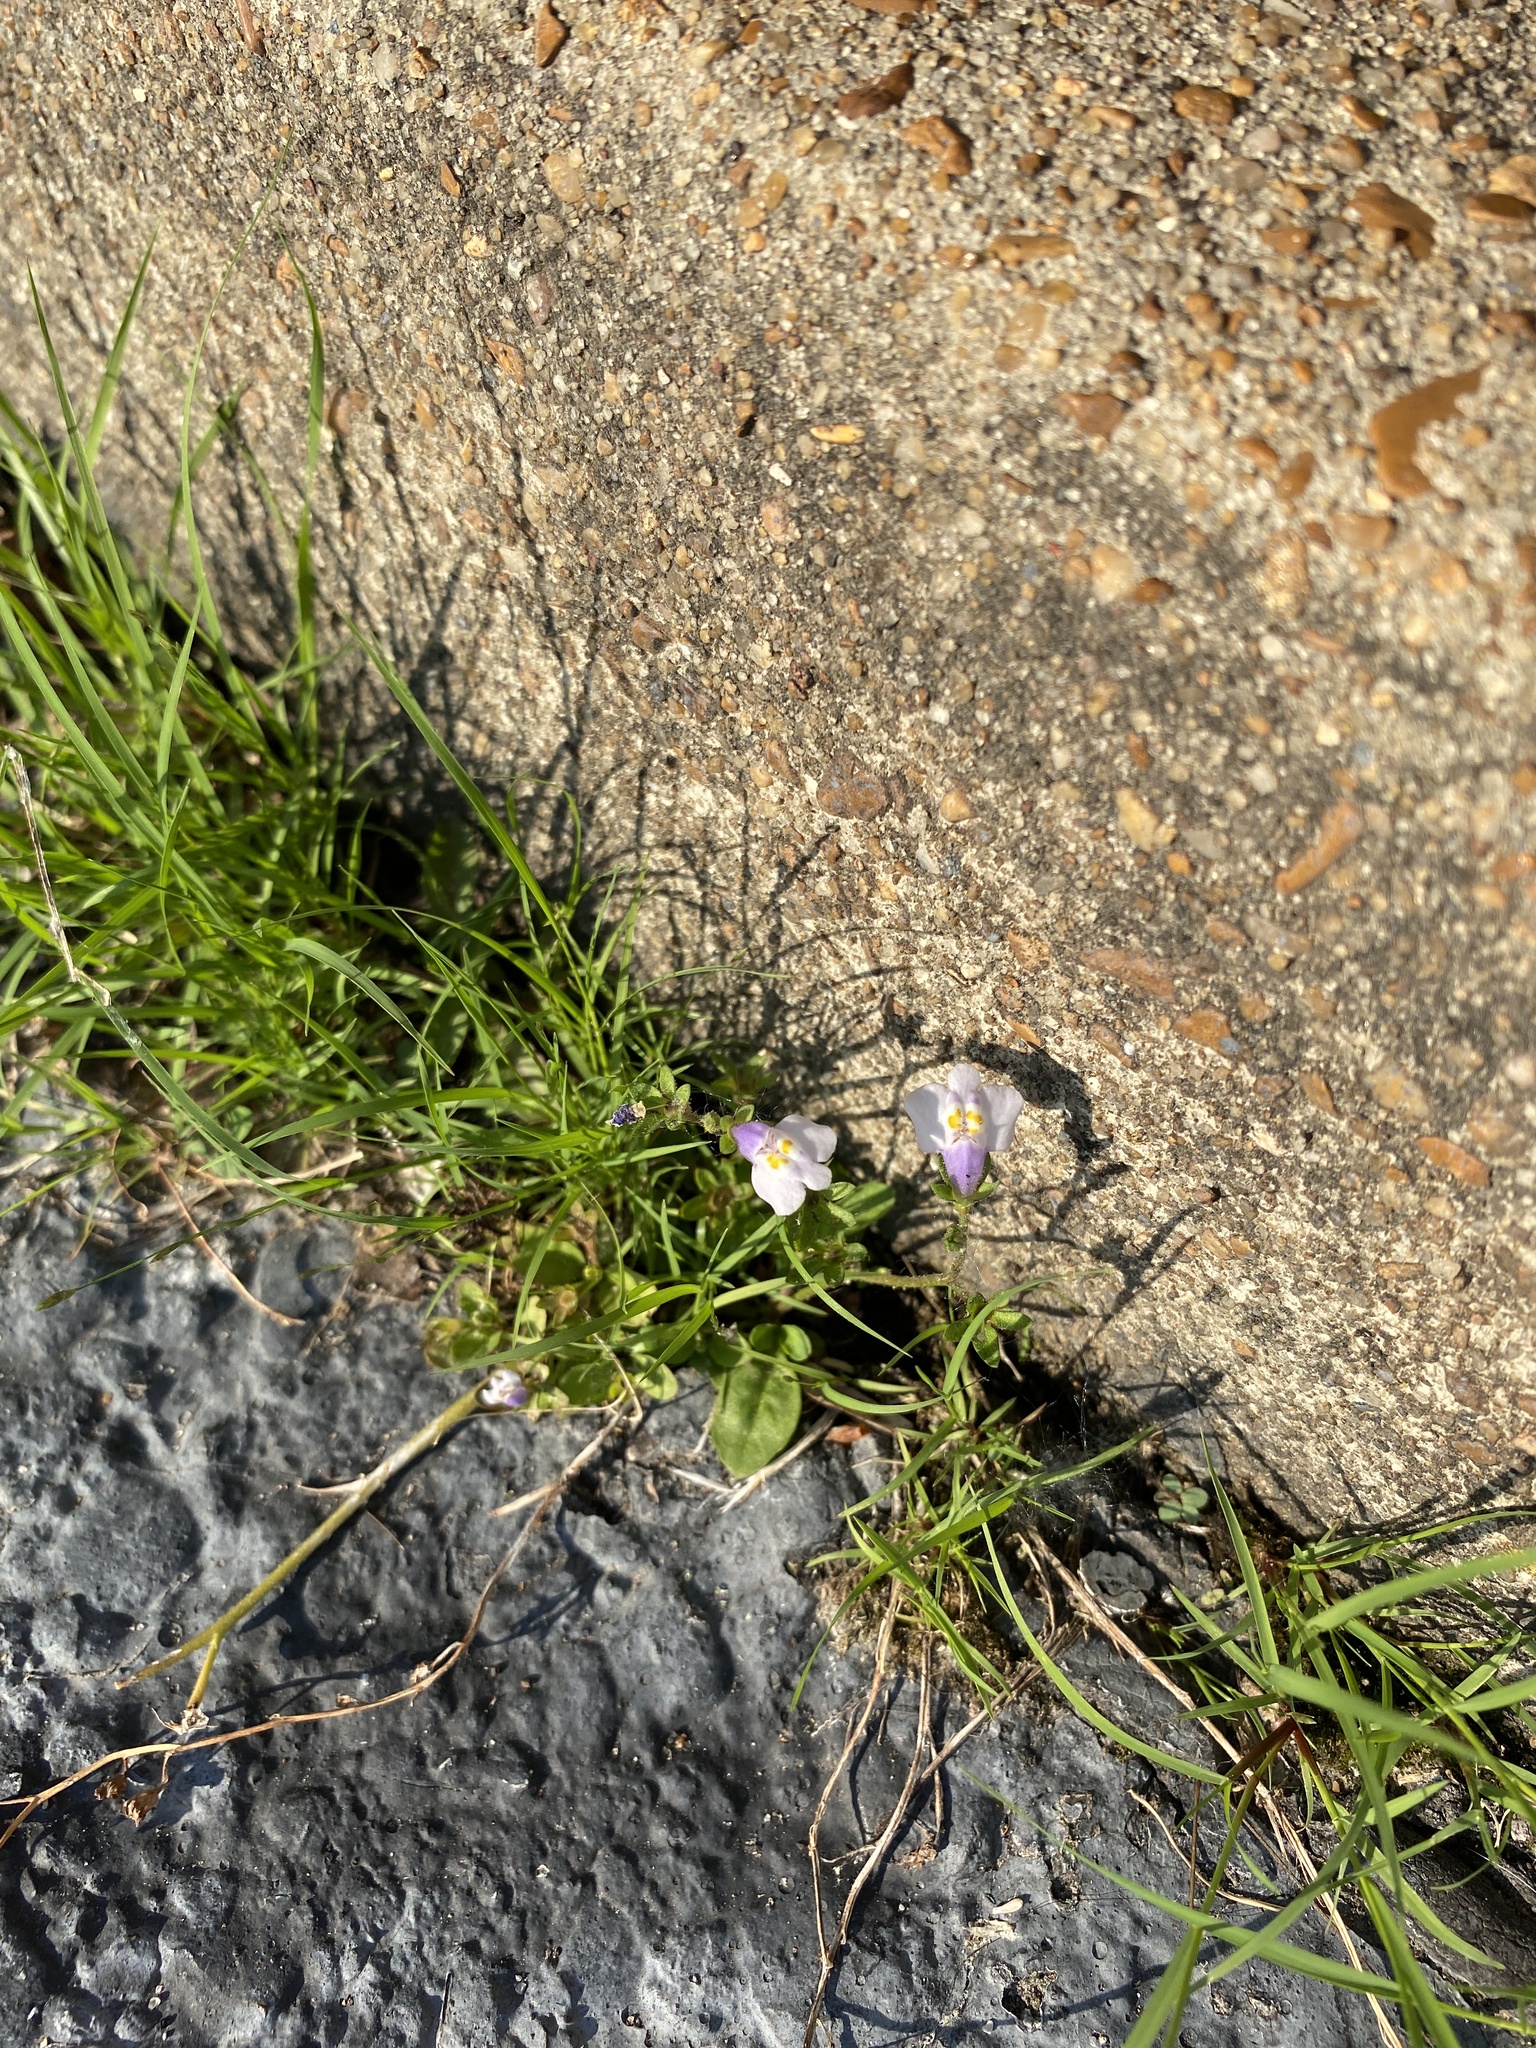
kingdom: Plantae
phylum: Tracheophyta
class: Magnoliopsida
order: Lamiales
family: Mazaceae
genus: Mazus
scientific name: Mazus pumilus
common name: Japanese mazus
